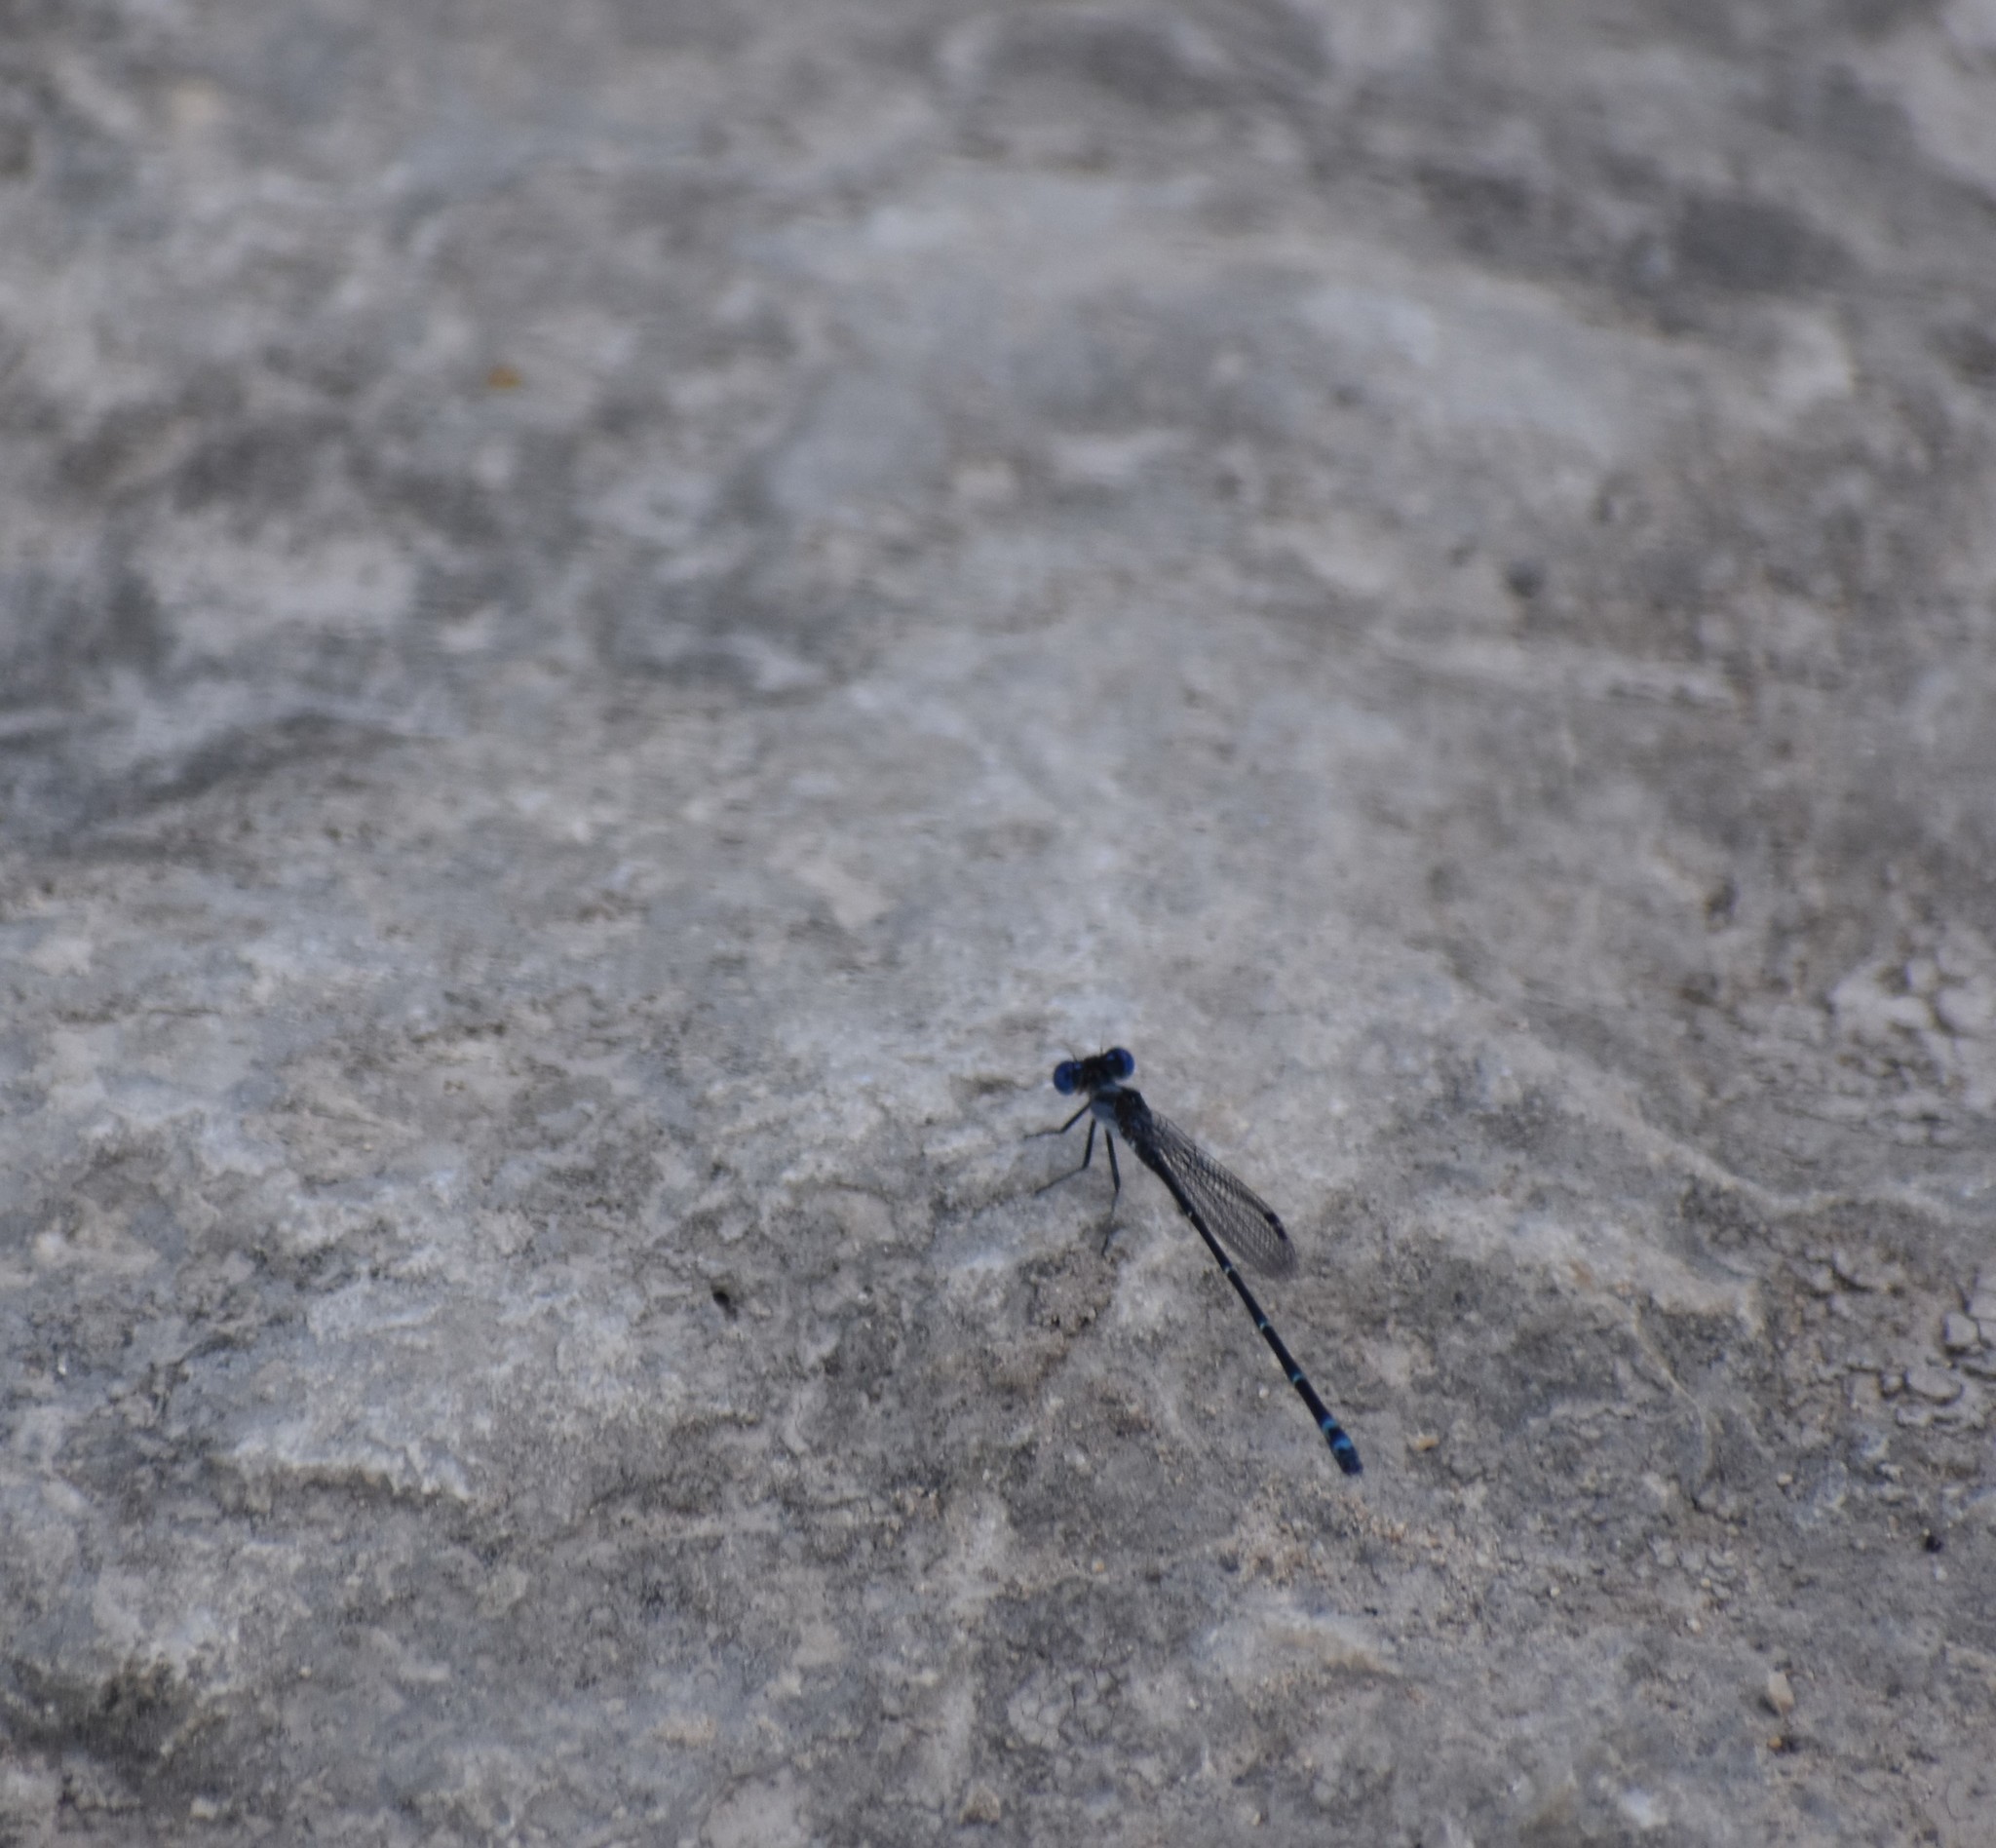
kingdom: Animalia
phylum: Arthropoda
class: Insecta
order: Odonata
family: Coenagrionidae
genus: Argia
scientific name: Argia translata
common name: Dusky dancer
